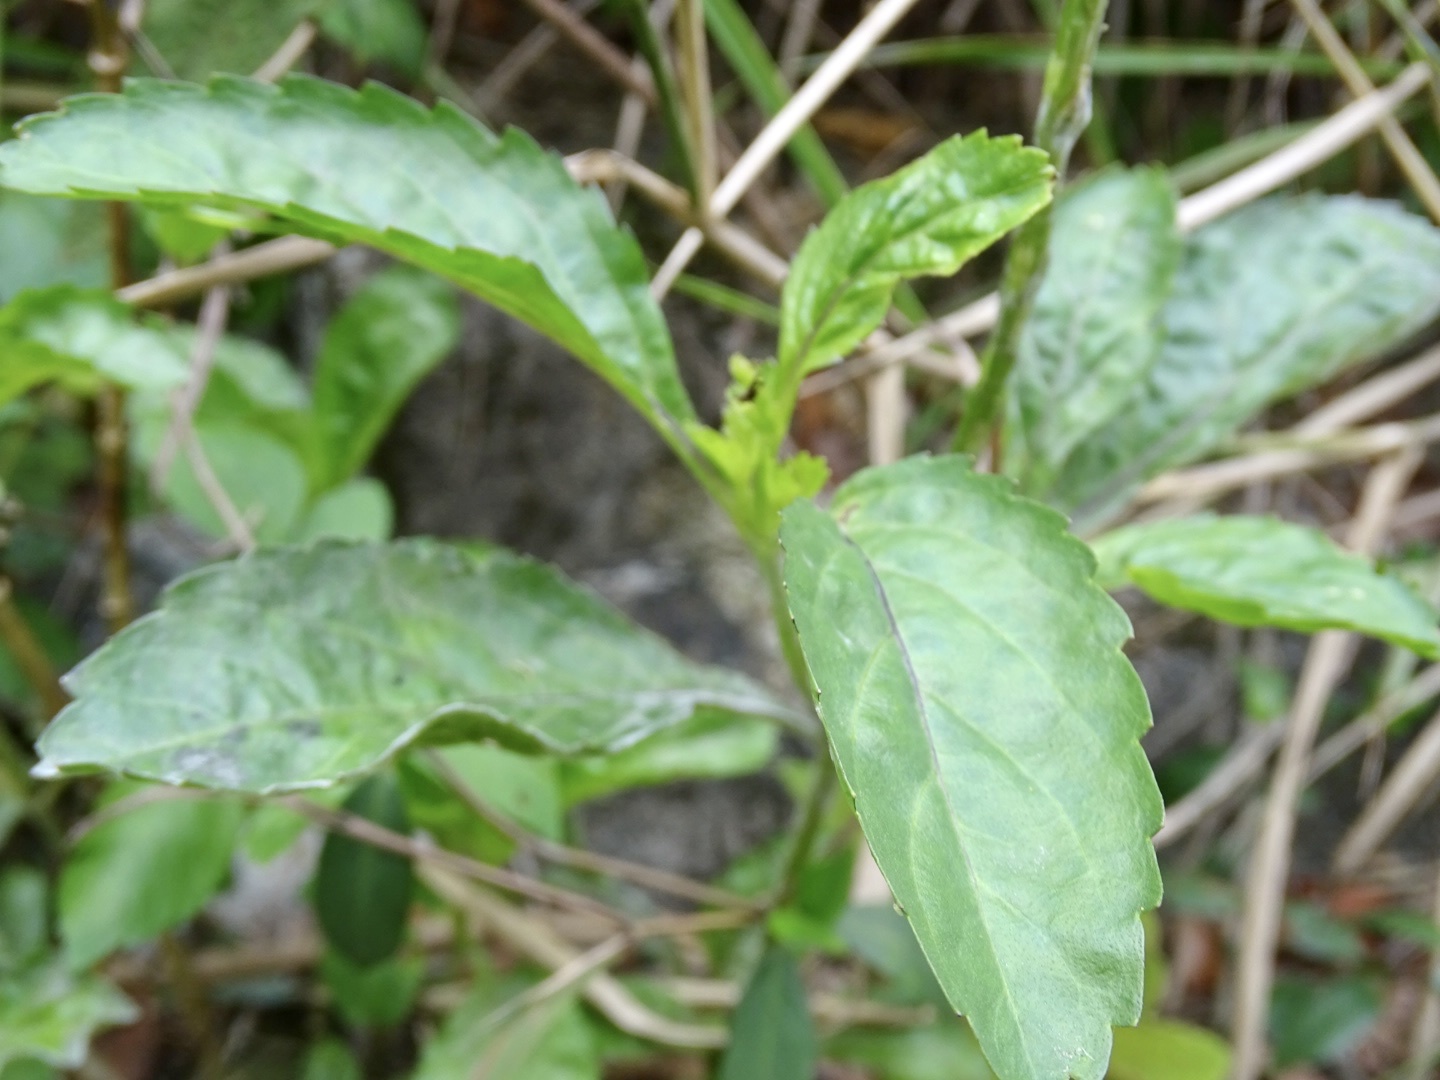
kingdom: Plantae
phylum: Tracheophyta
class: Magnoliopsida
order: Lamiales
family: Verbenaceae
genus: Stachytarpheta
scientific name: Stachytarpheta jamaicensis
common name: Light-blue snakeweed
